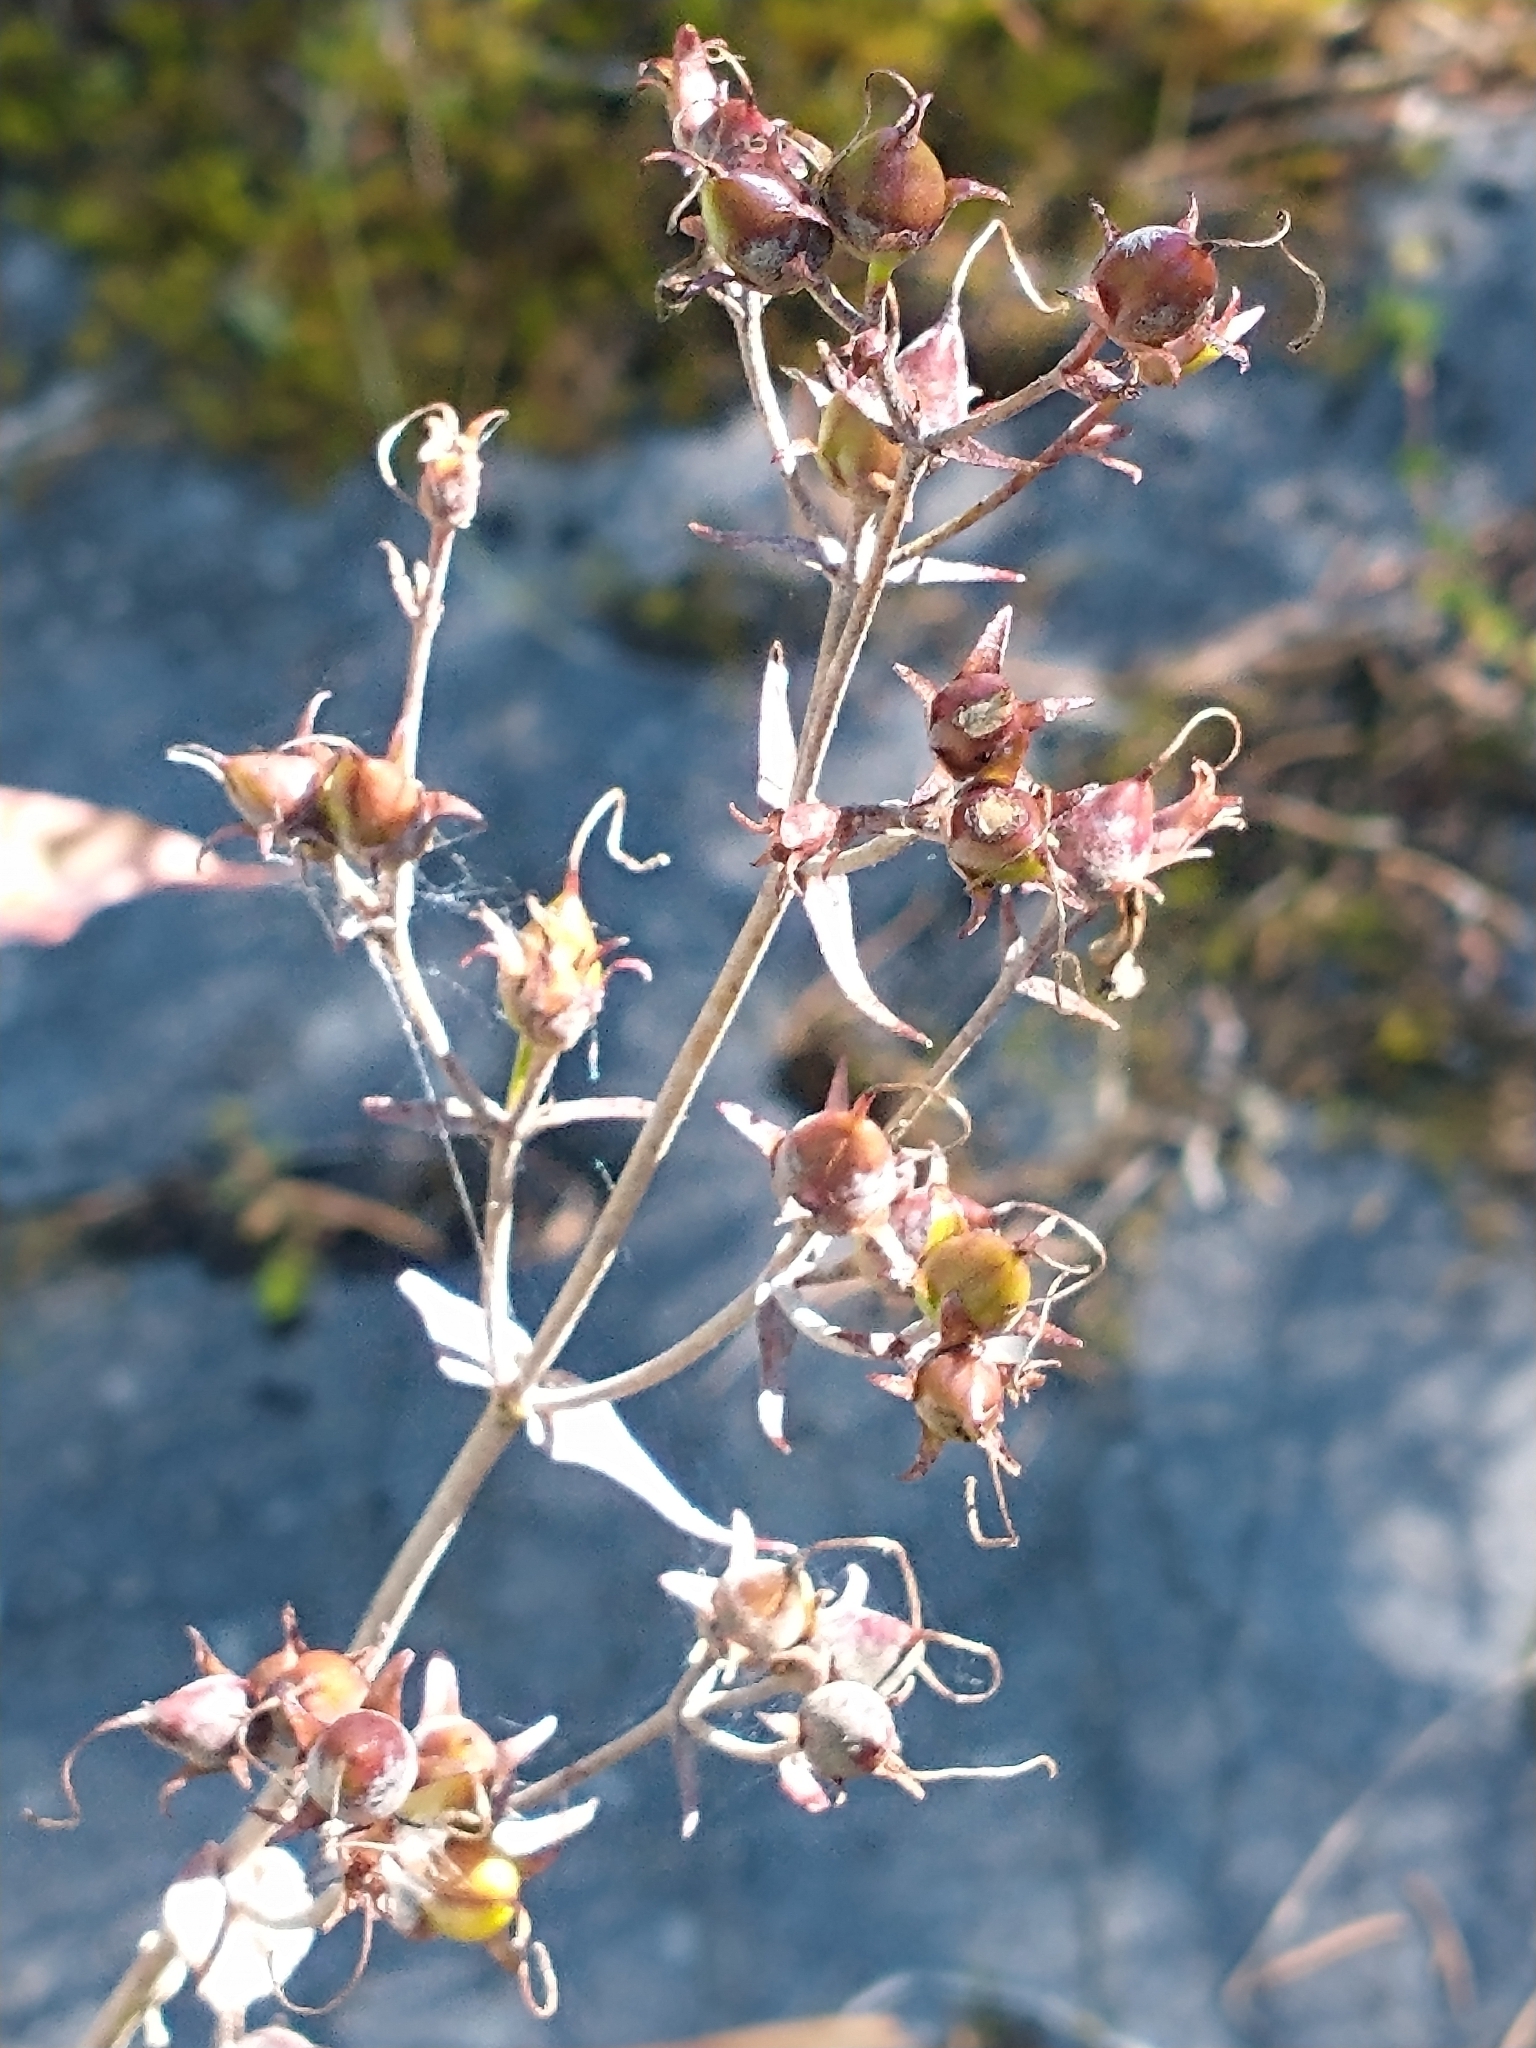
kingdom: Plantae
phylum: Tracheophyta
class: Magnoliopsida
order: Lamiales
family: Plantaginaceae
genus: Penstemon
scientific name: Penstemon digitalis
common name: Foxglove beardtongue
